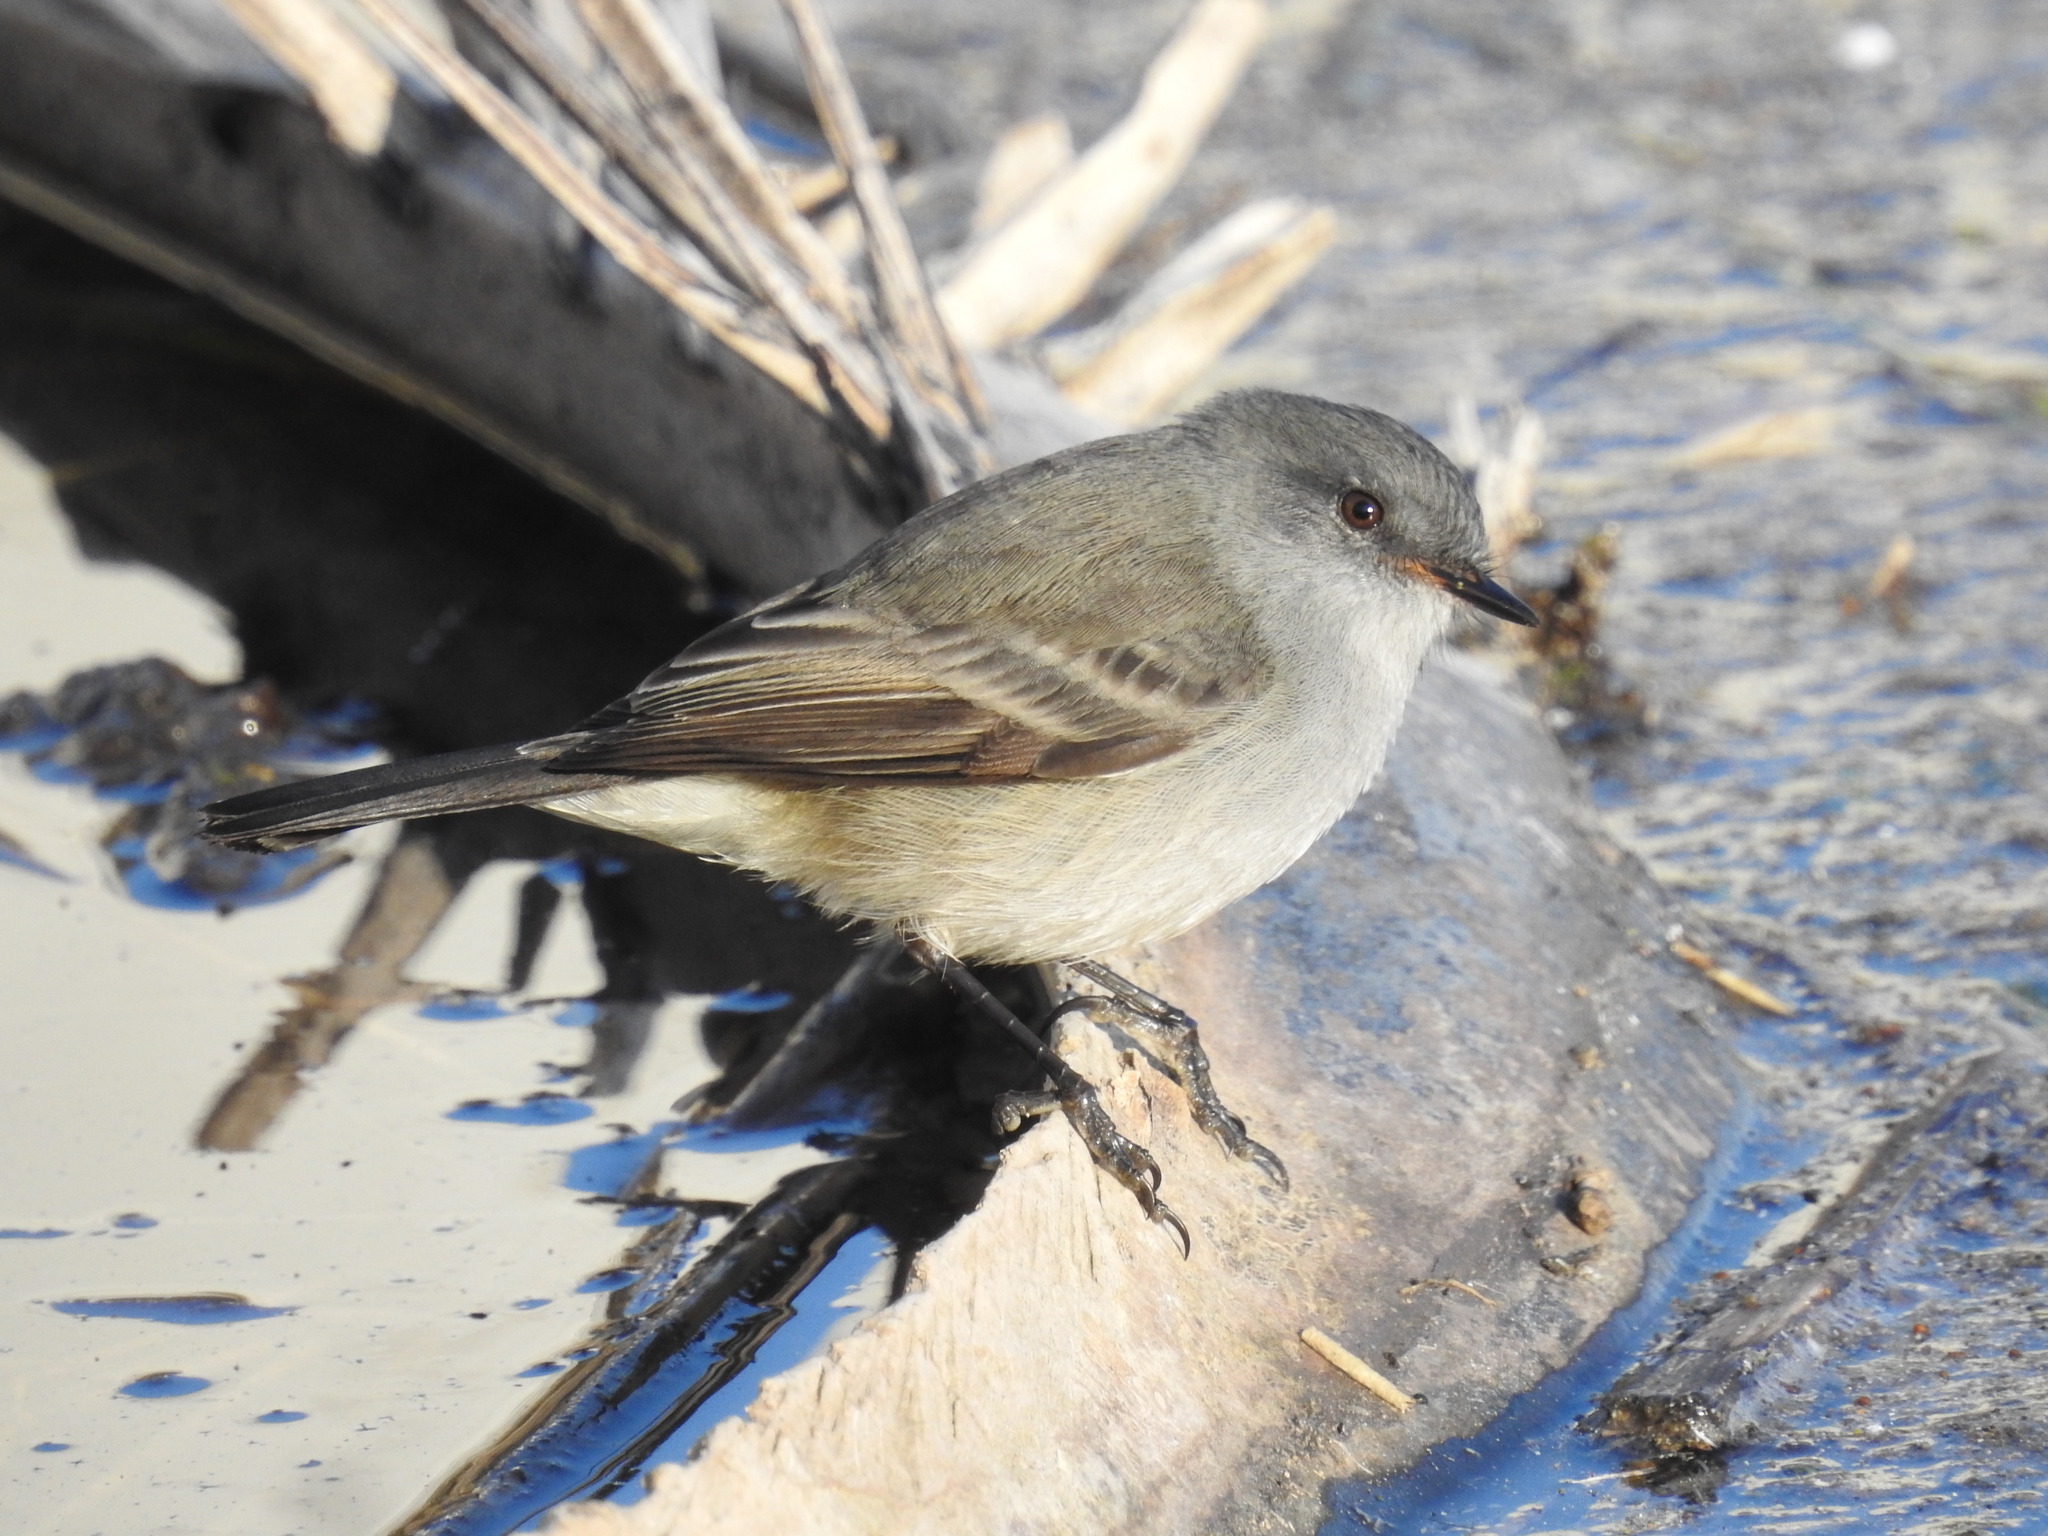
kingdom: Animalia
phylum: Chordata
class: Aves
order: Passeriformes
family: Tyrannidae
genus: Serpophaga
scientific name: Serpophaga nigricans
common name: Sooty tyrannulet
